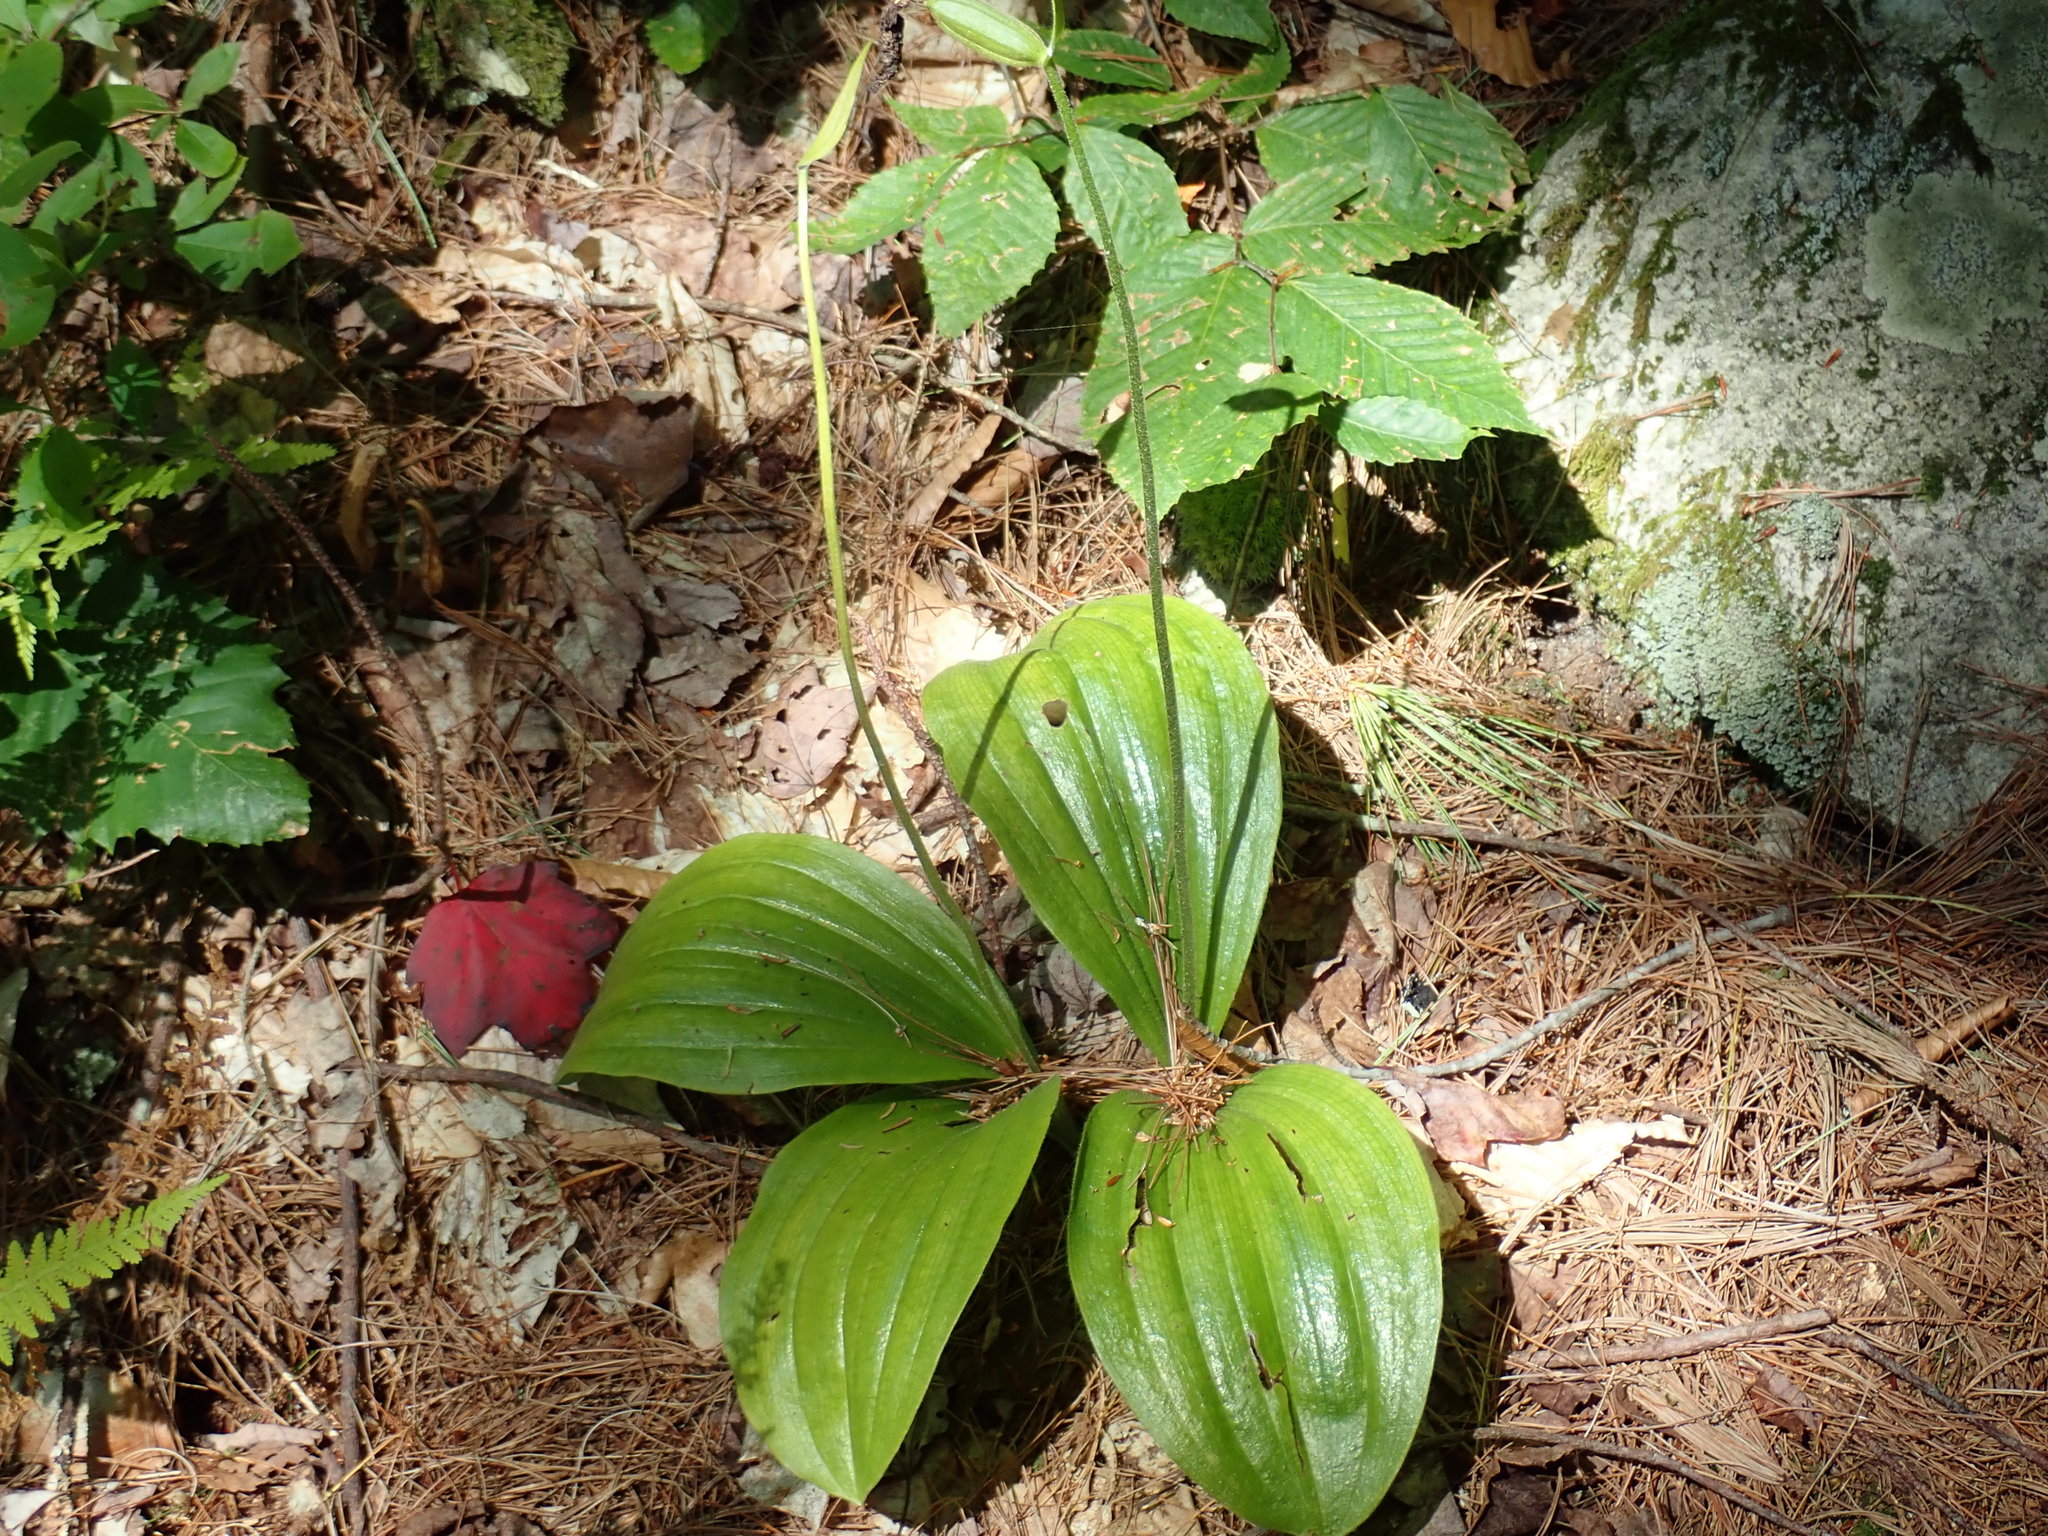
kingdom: Plantae
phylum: Tracheophyta
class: Liliopsida
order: Asparagales
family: Orchidaceae
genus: Cypripedium
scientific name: Cypripedium acaule
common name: Pink lady's-slipper
